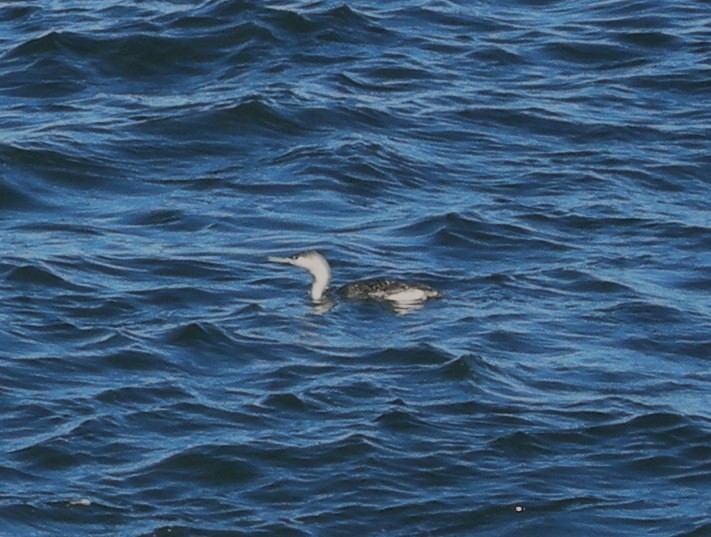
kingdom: Animalia
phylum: Chordata
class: Aves
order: Gaviiformes
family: Gaviidae
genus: Gavia
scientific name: Gavia stellata
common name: Red-throated loon
